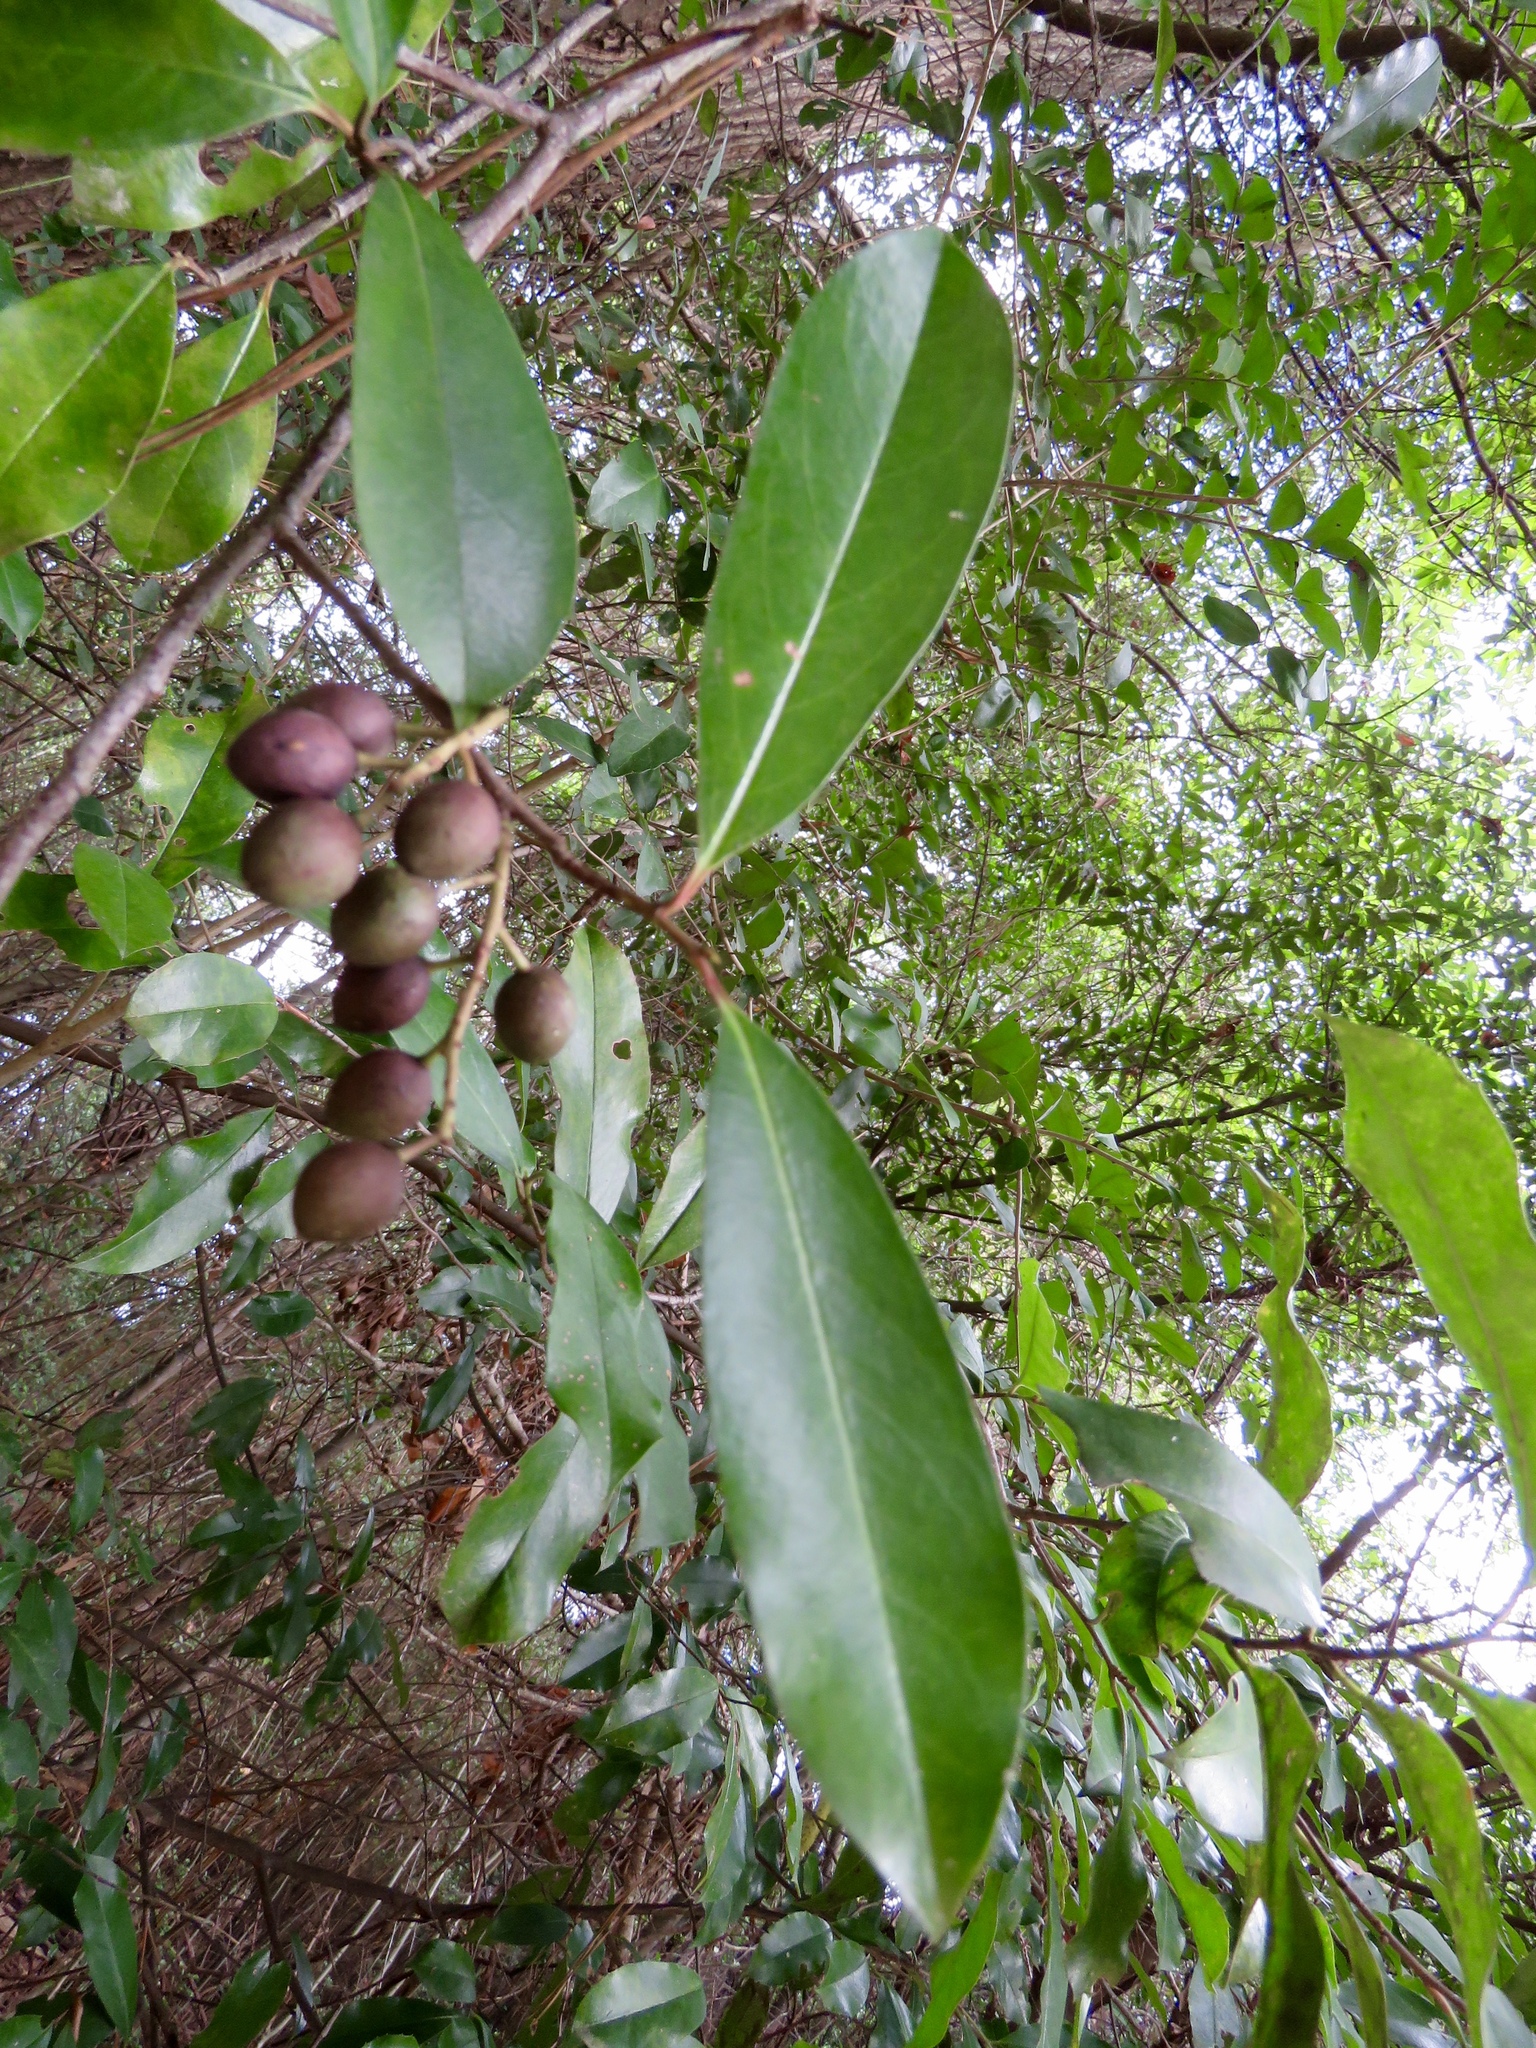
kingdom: Plantae
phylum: Tracheophyta
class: Magnoliopsida
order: Rosales
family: Rosaceae
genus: Prunus
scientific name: Prunus caroliniana
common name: Carolina laurel cherry
